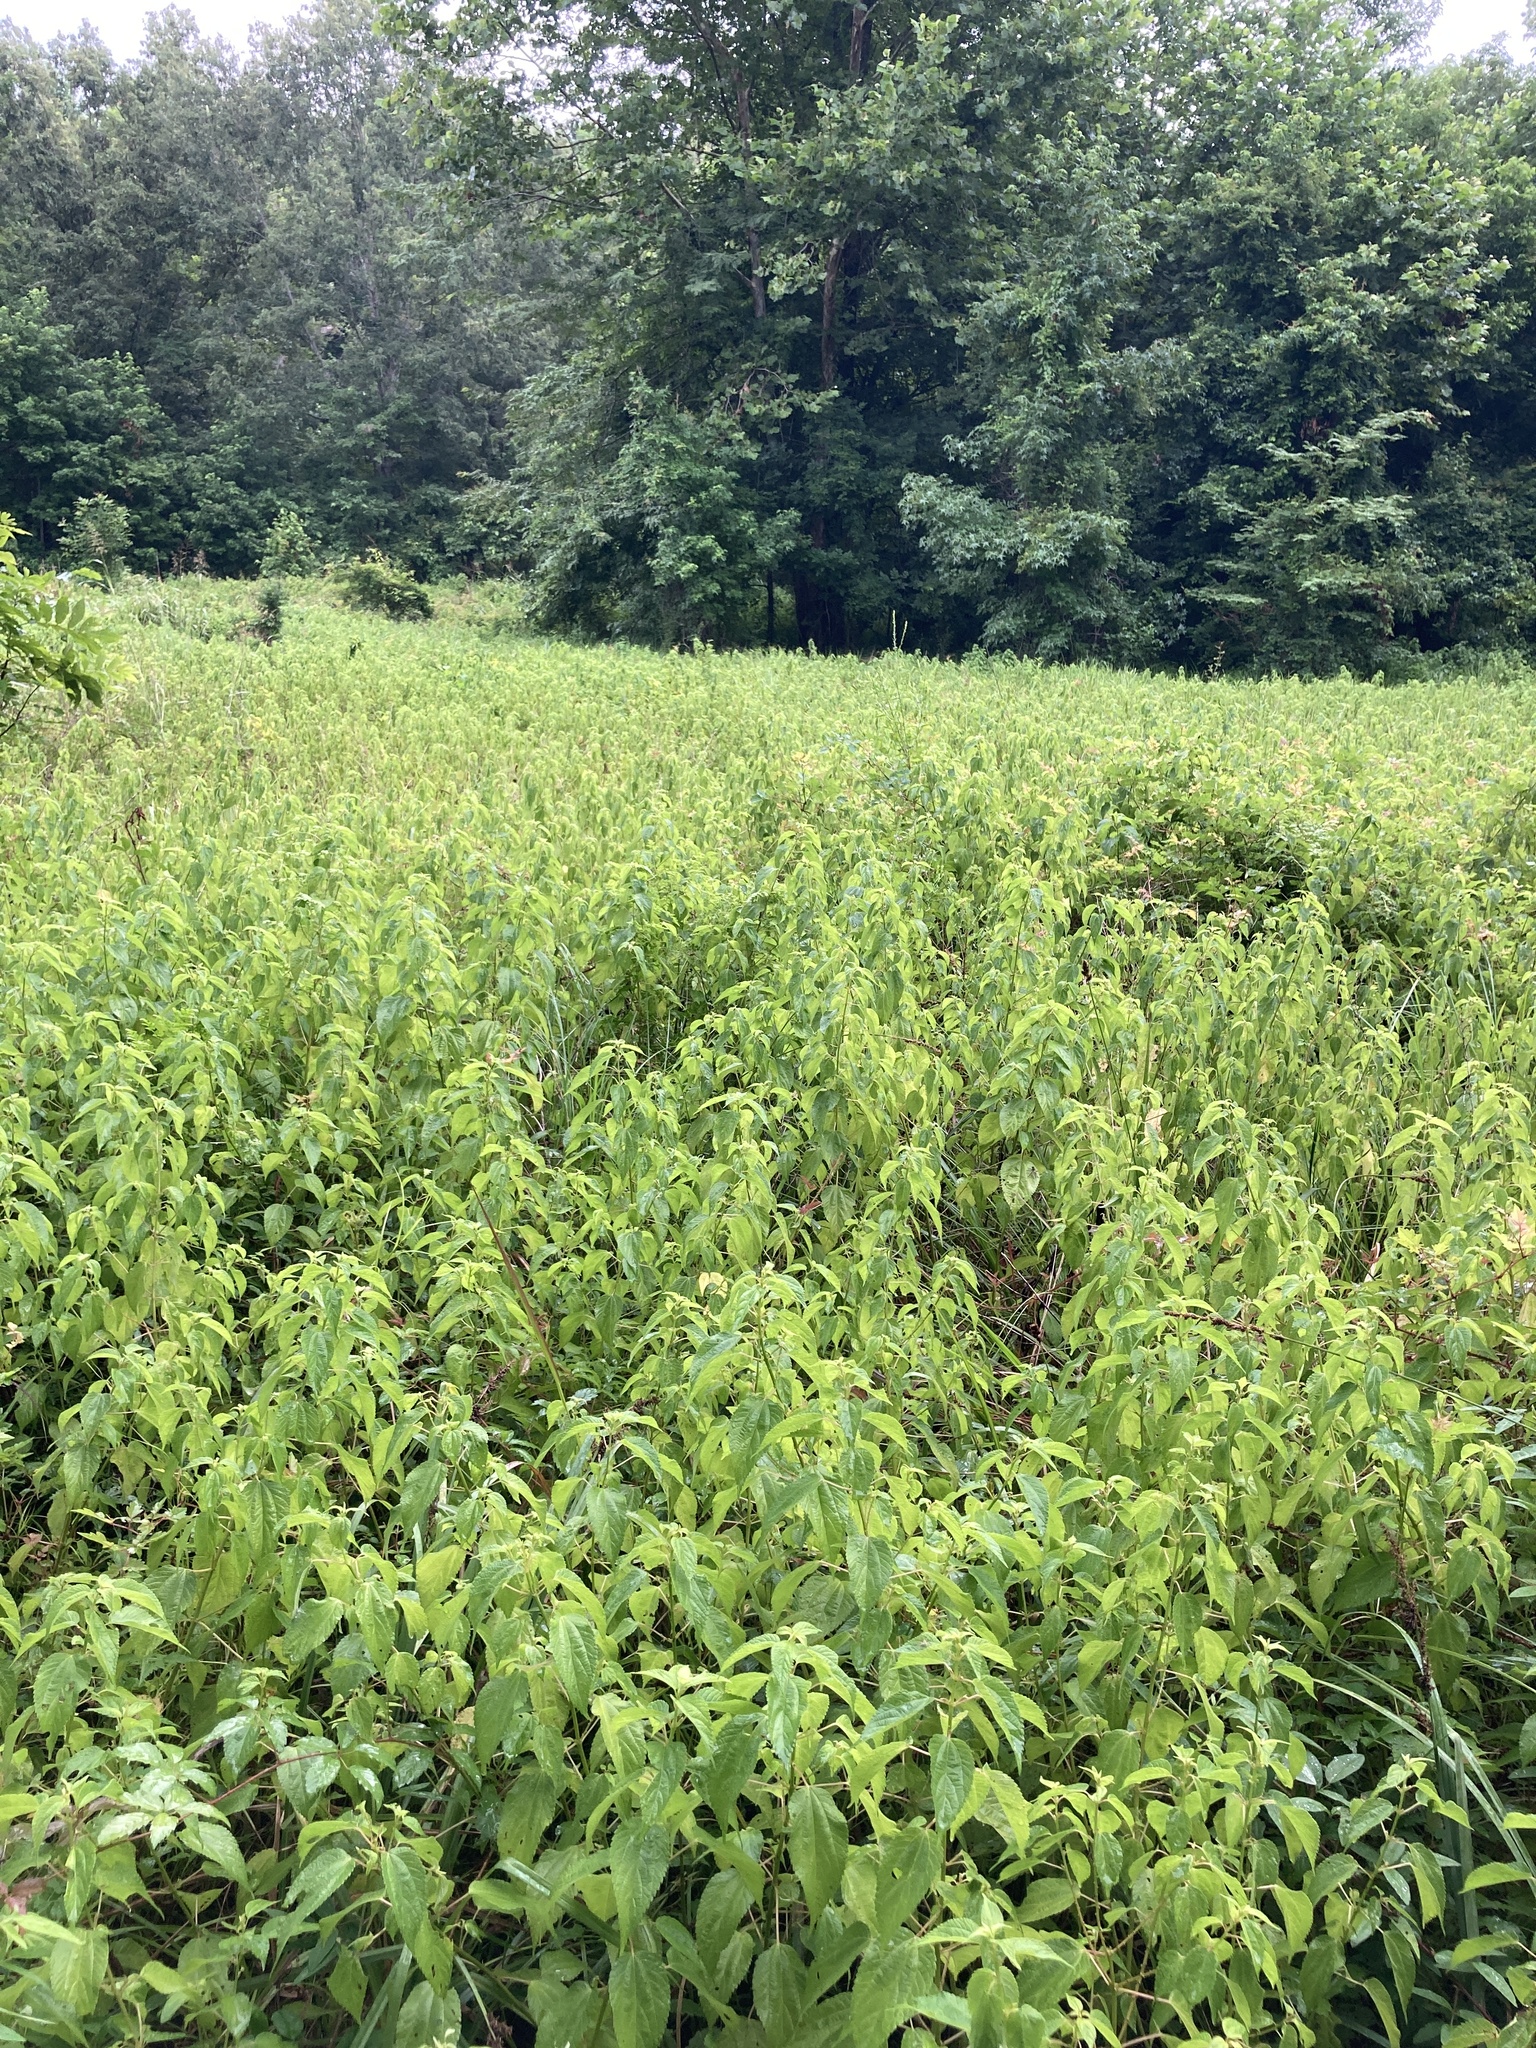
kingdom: Plantae
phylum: Tracheophyta
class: Magnoliopsida
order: Rosales
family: Urticaceae
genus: Boehmeria
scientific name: Boehmeria cylindrica
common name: Bog-hemp
